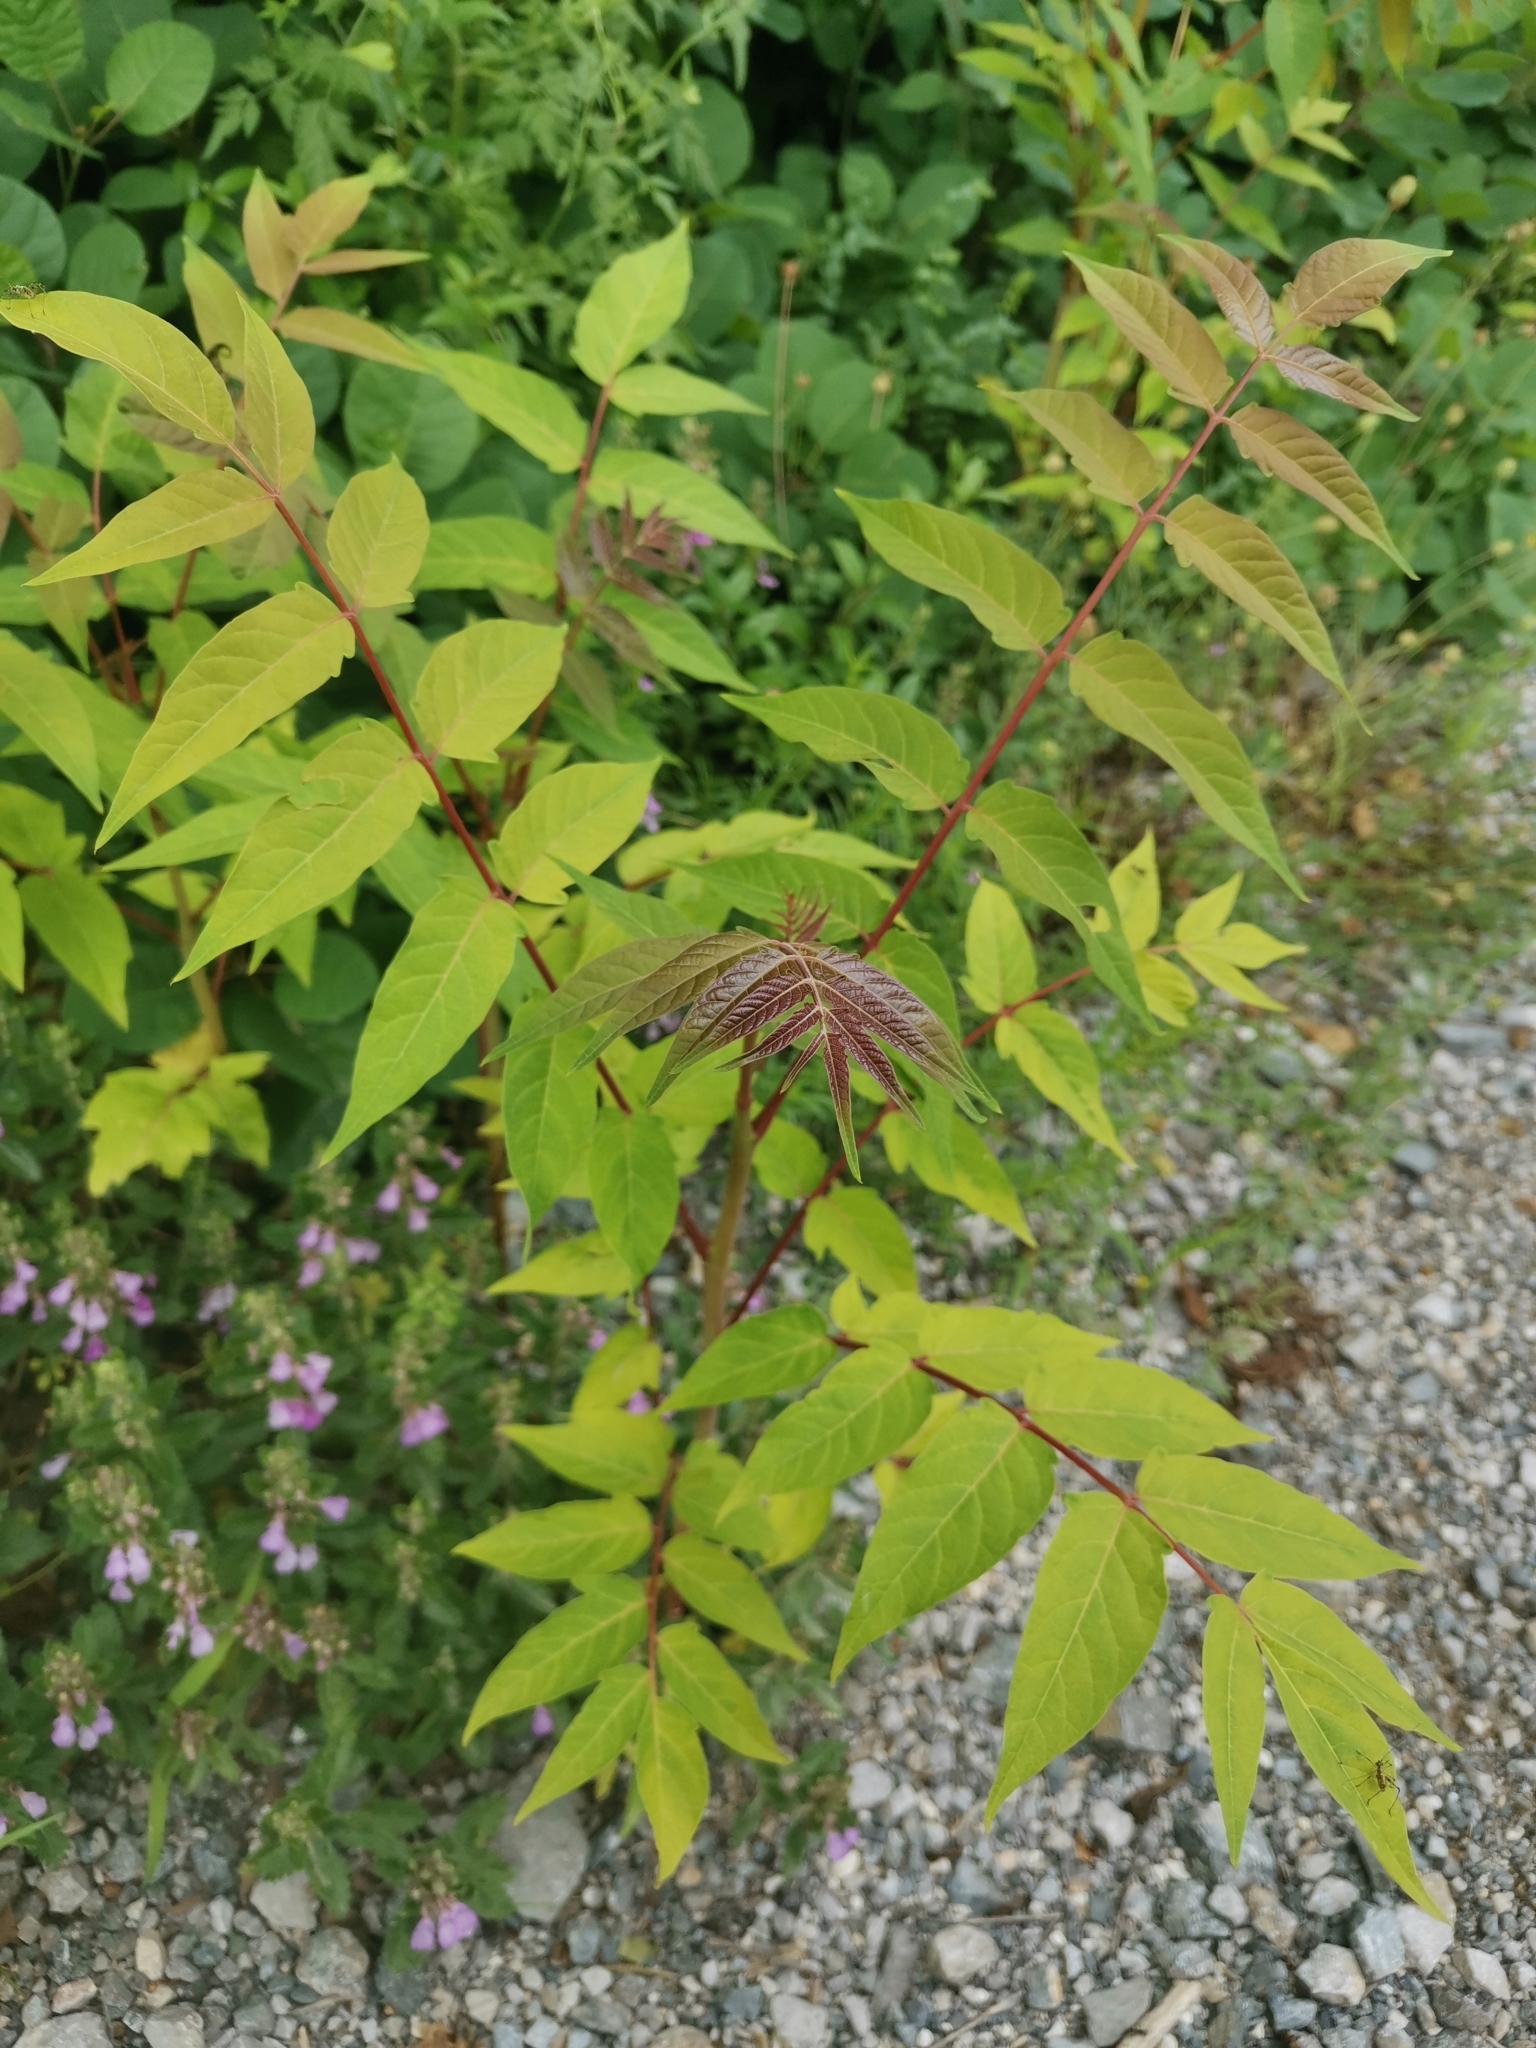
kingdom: Plantae
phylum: Tracheophyta
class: Magnoliopsida
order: Sapindales
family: Simaroubaceae
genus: Ailanthus
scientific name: Ailanthus altissima
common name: Tree-of-heaven
